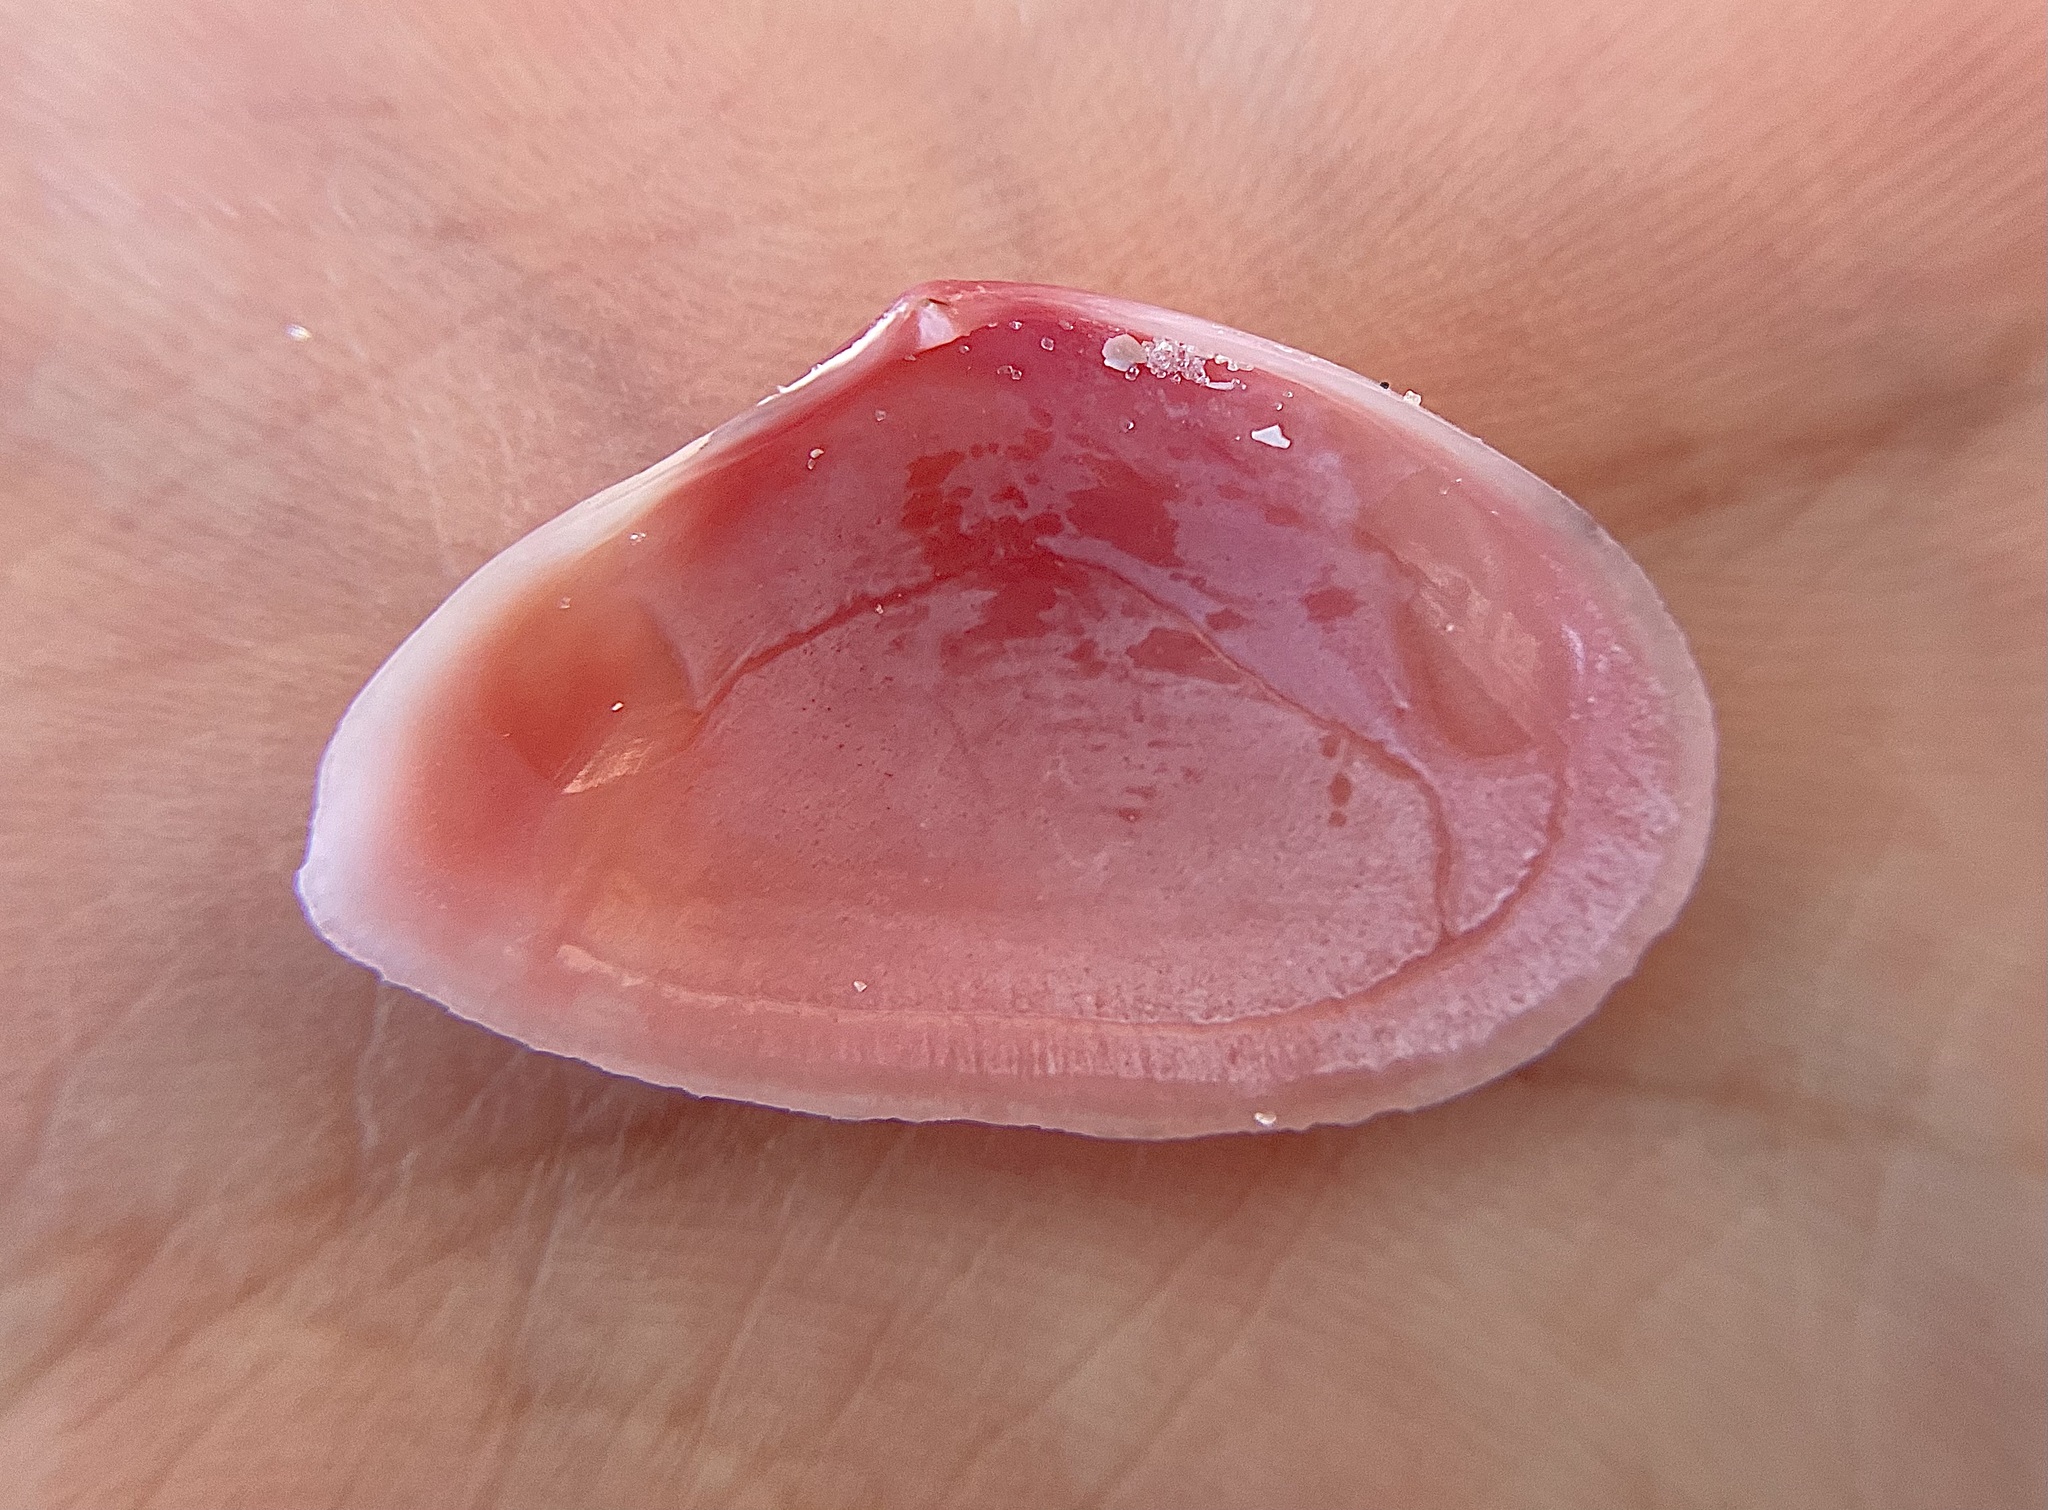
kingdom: Animalia
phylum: Mollusca
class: Bivalvia
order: Cardiida
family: Tellinidae
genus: Eurytellina
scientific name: Eurytellina lineata
